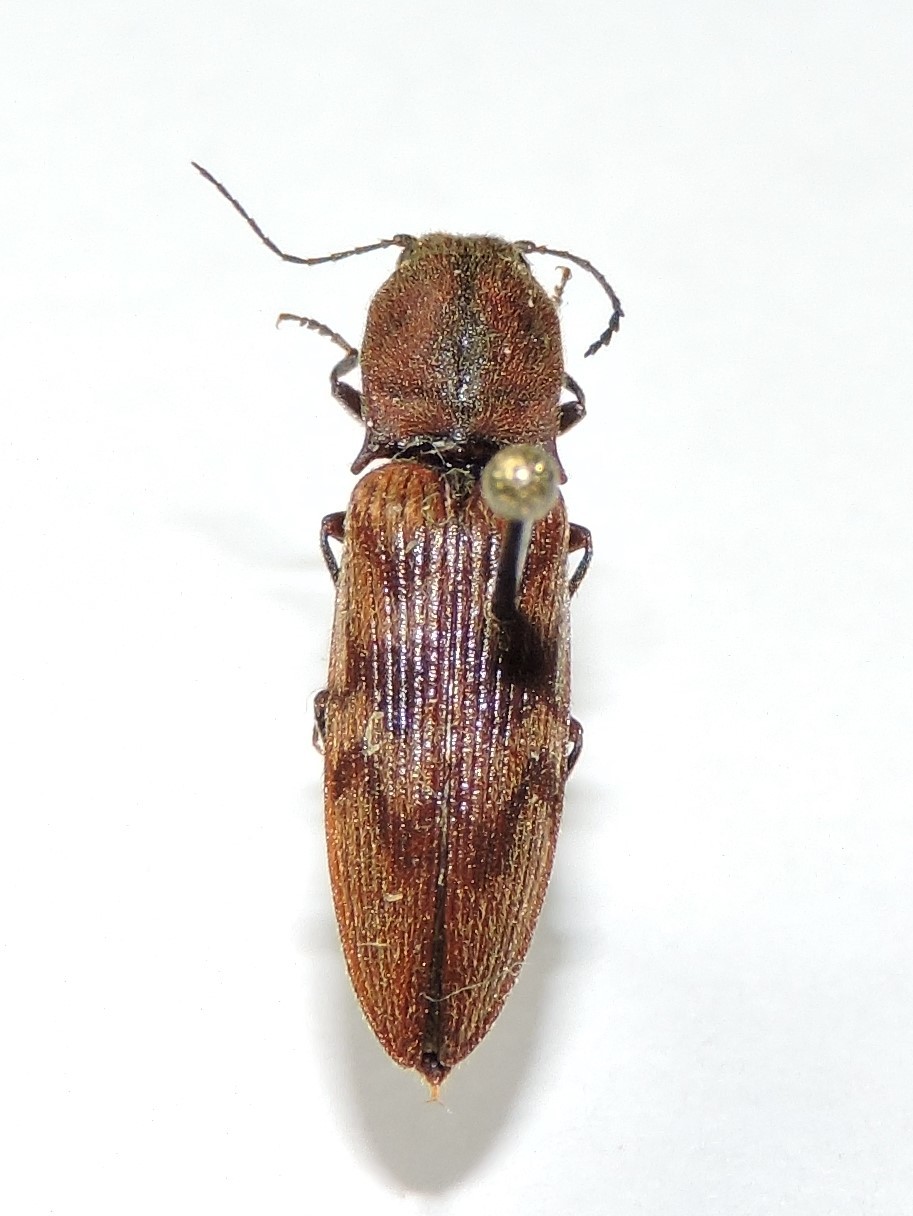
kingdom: Animalia
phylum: Arthropoda
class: Insecta
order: Coleoptera
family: Elateridae
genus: Diacanthous
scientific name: Diacanthous undulatus
